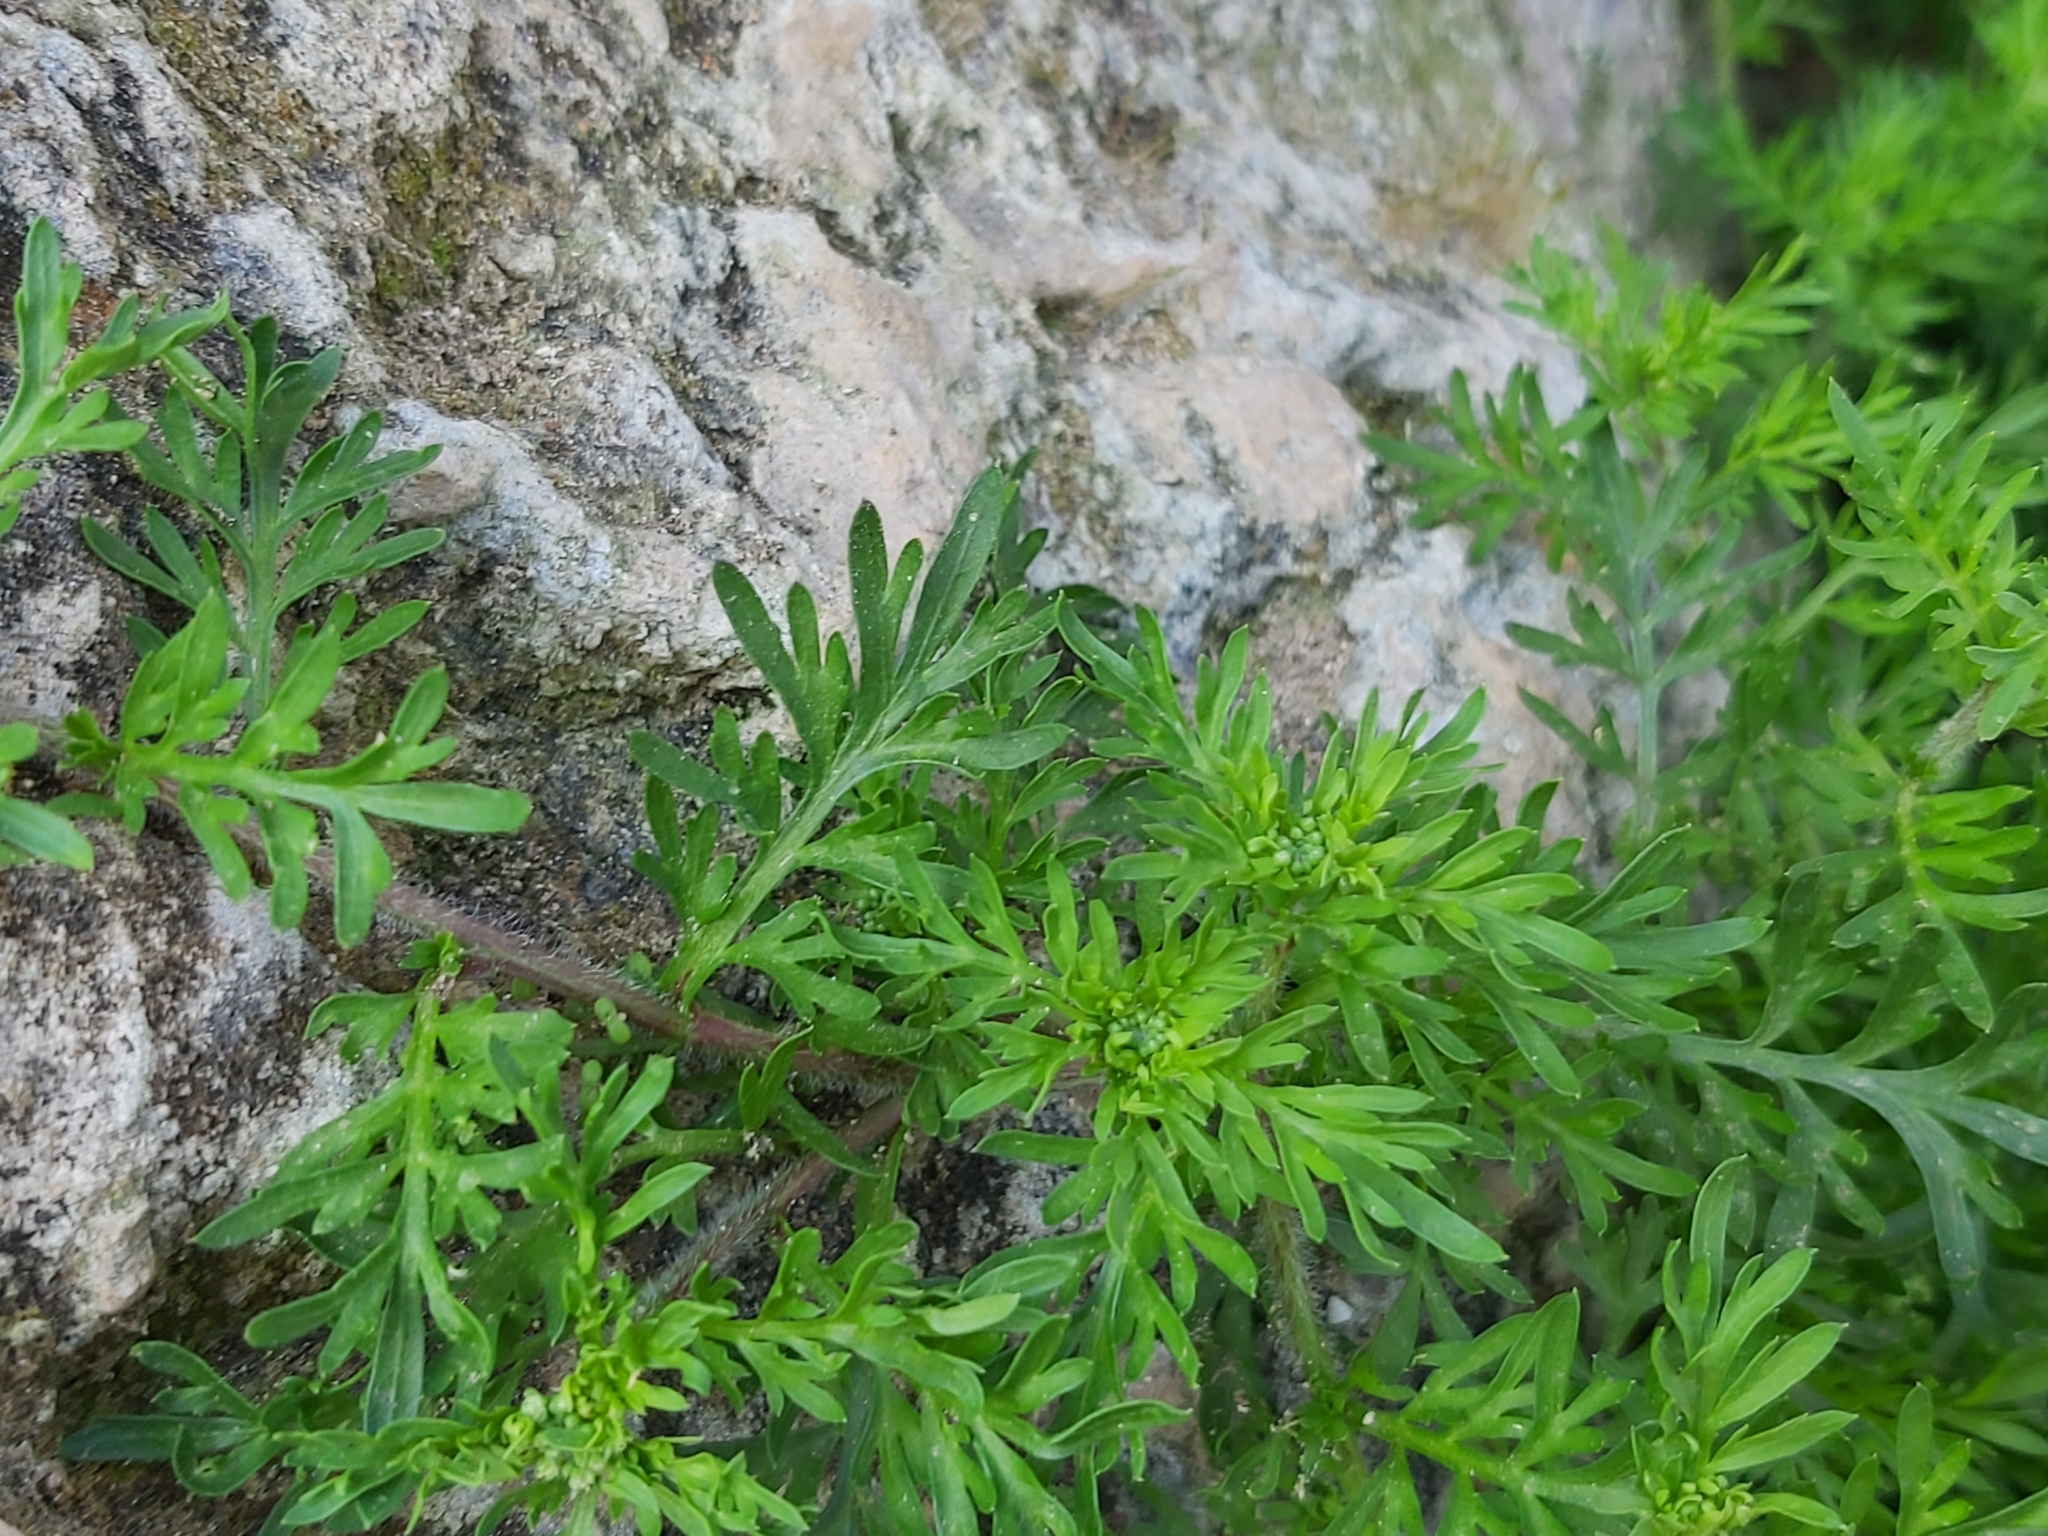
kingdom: Plantae
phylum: Tracheophyta
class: Magnoliopsida
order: Brassicales
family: Brassicaceae
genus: Lepidium
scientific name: Lepidium didymum
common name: Lesser swinecress
